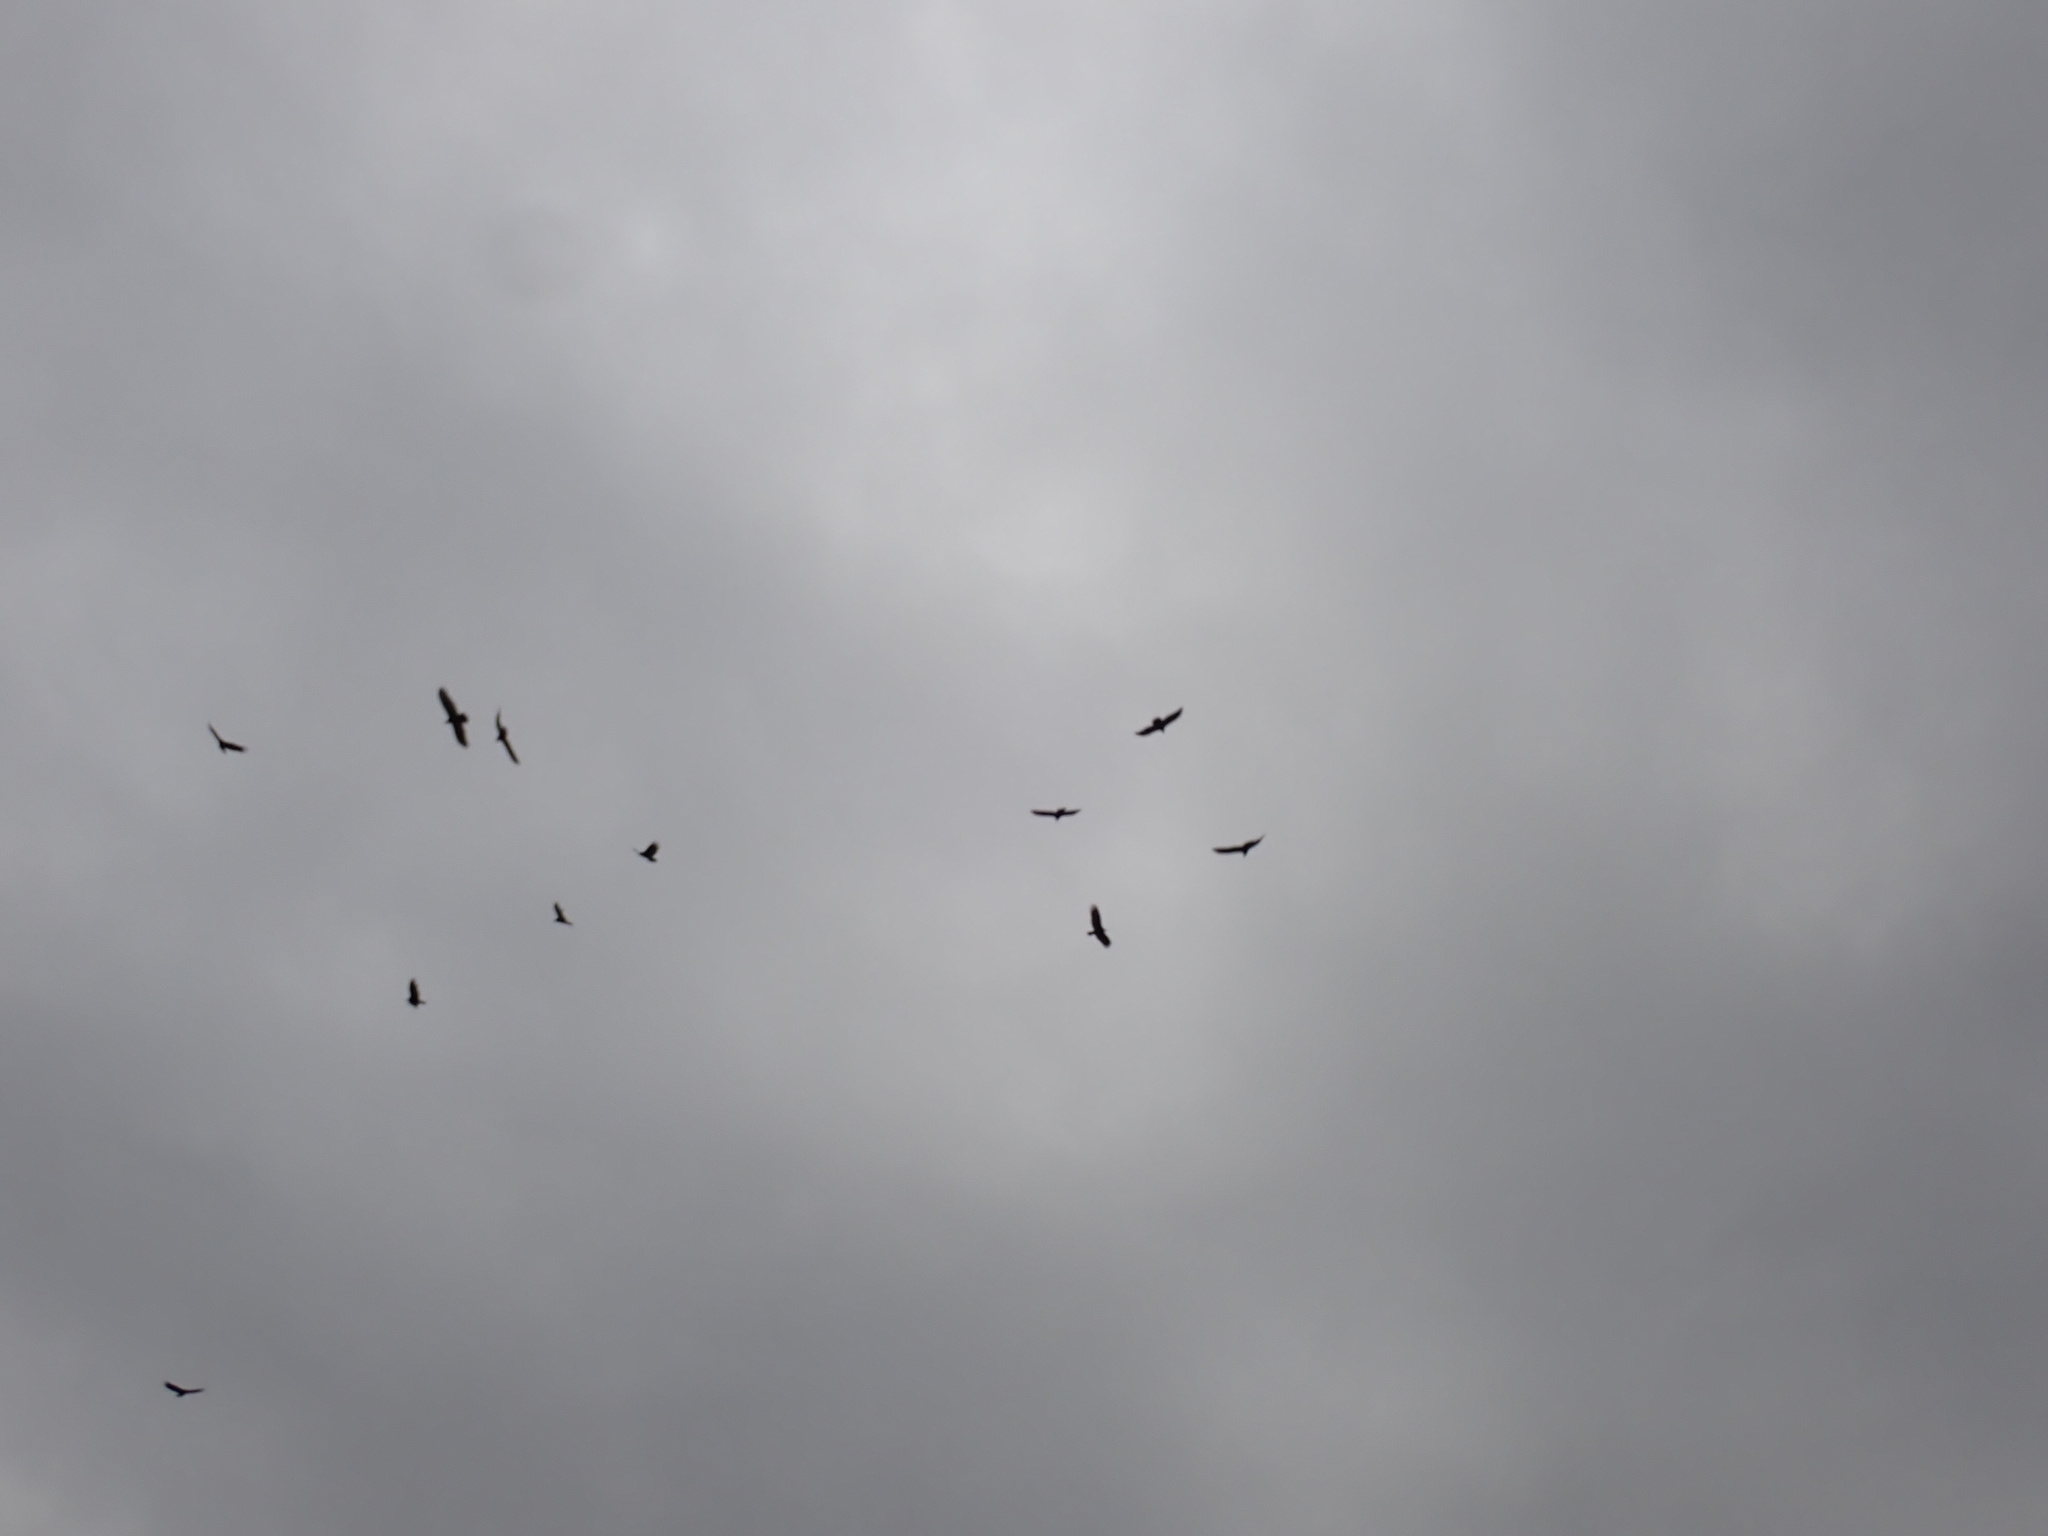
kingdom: Animalia
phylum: Chordata
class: Aves
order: Accipitriformes
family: Cathartidae
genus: Cathartes
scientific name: Cathartes aura
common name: Turkey vulture
